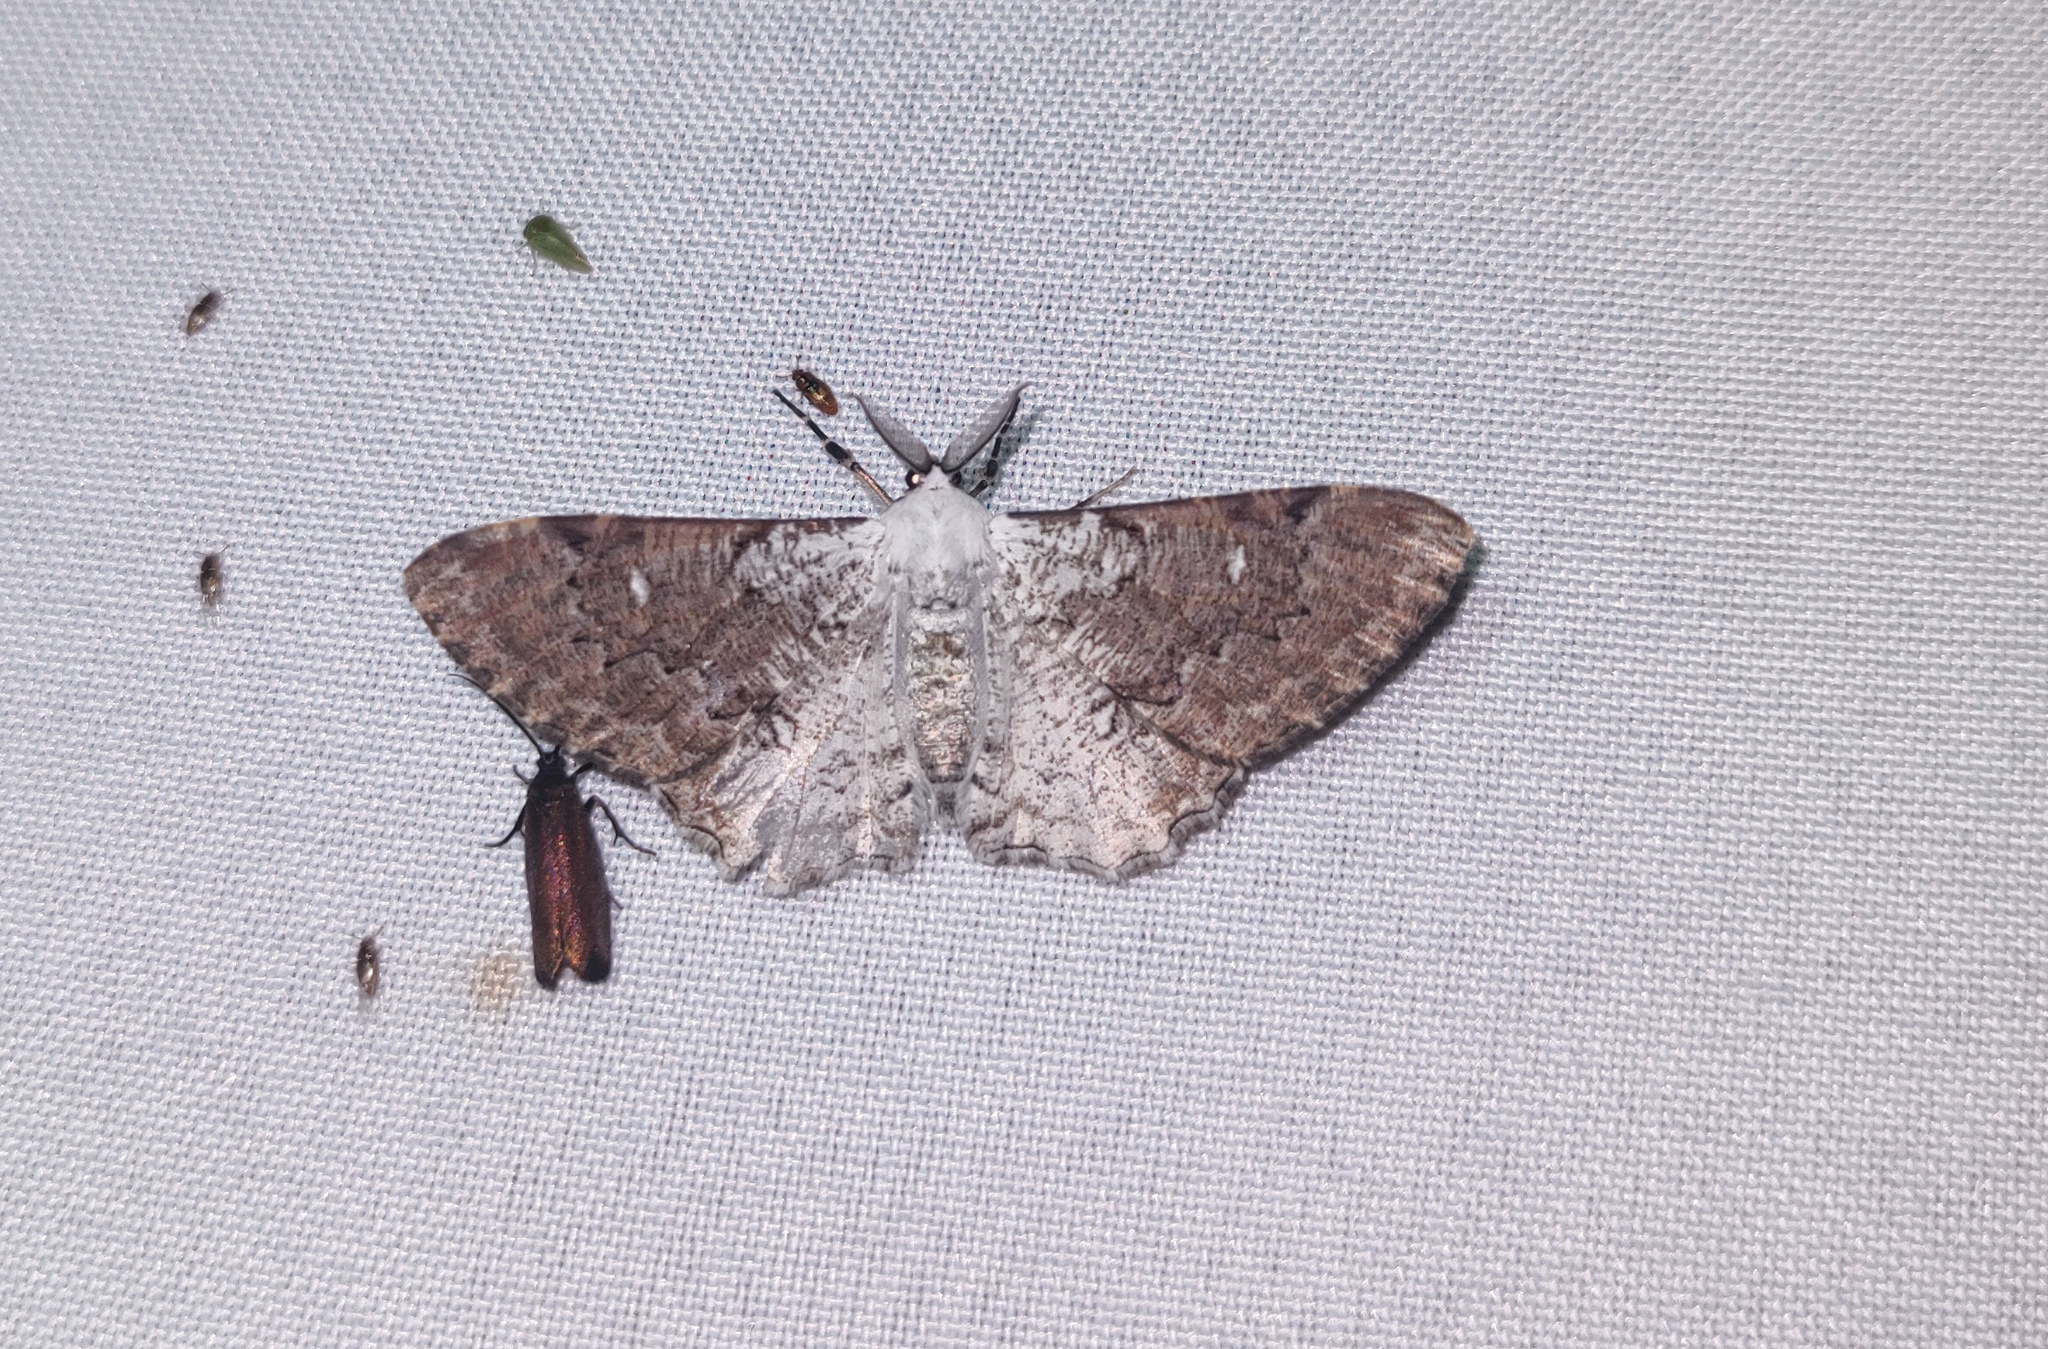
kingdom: Animalia
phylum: Arthropoda
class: Insecta
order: Lepidoptera
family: Geometridae
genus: Thyrinteina
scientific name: Thyrinteina arnobia
